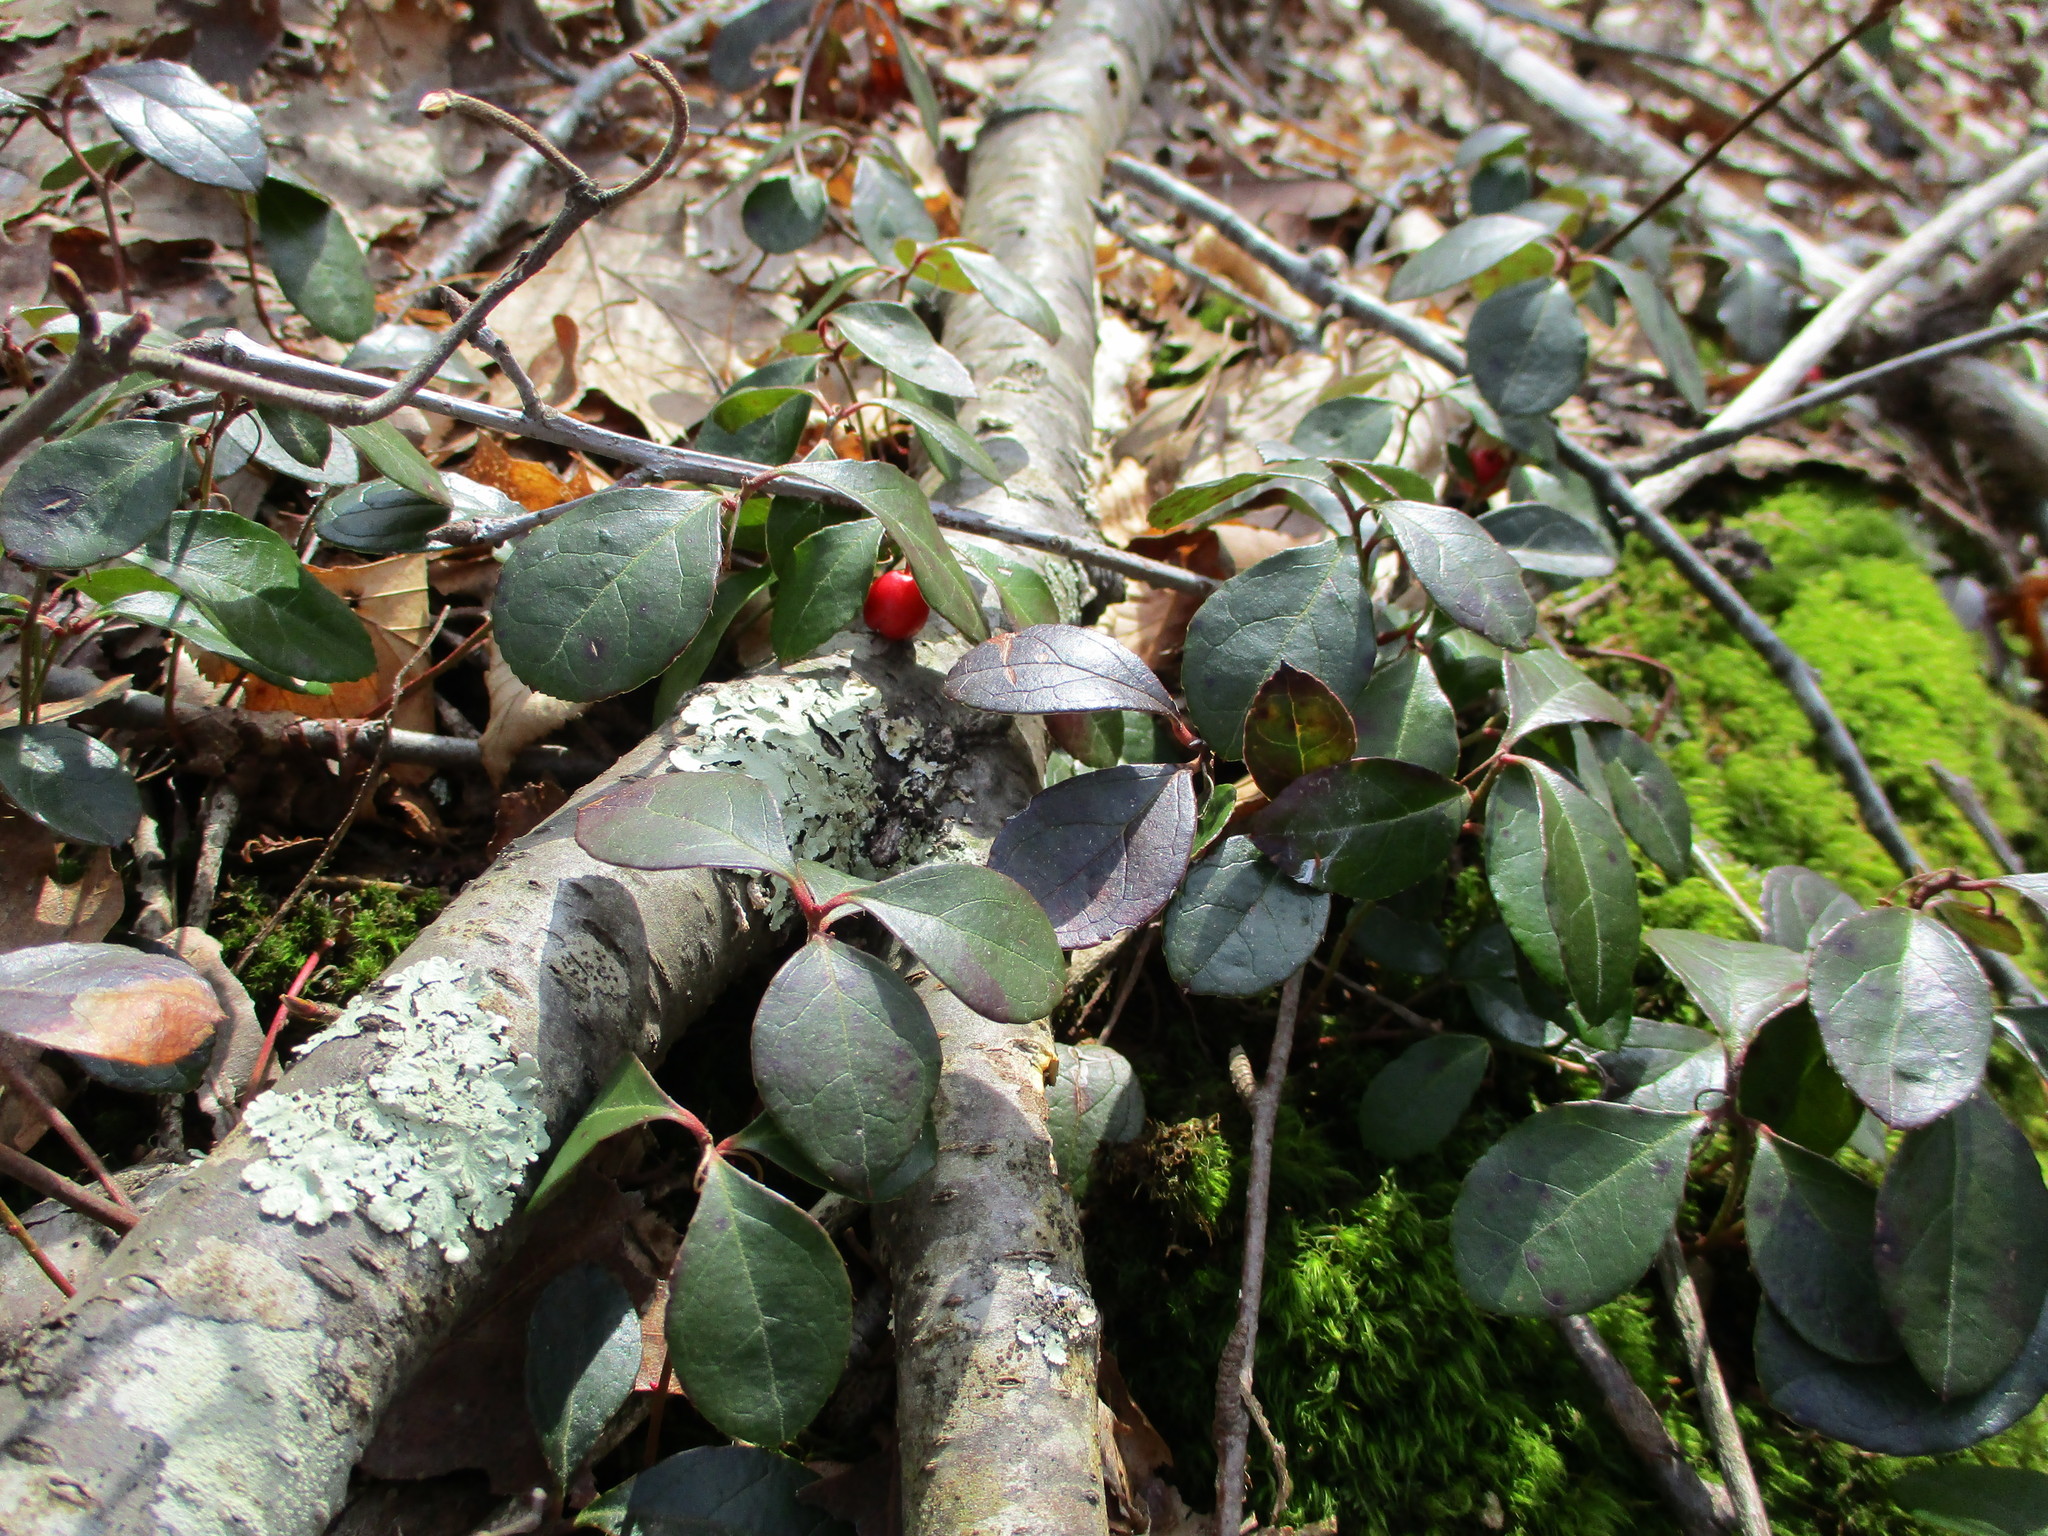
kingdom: Plantae
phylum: Tracheophyta
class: Magnoliopsida
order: Ericales
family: Ericaceae
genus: Gaultheria
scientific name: Gaultheria procumbens
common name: Checkerberry
